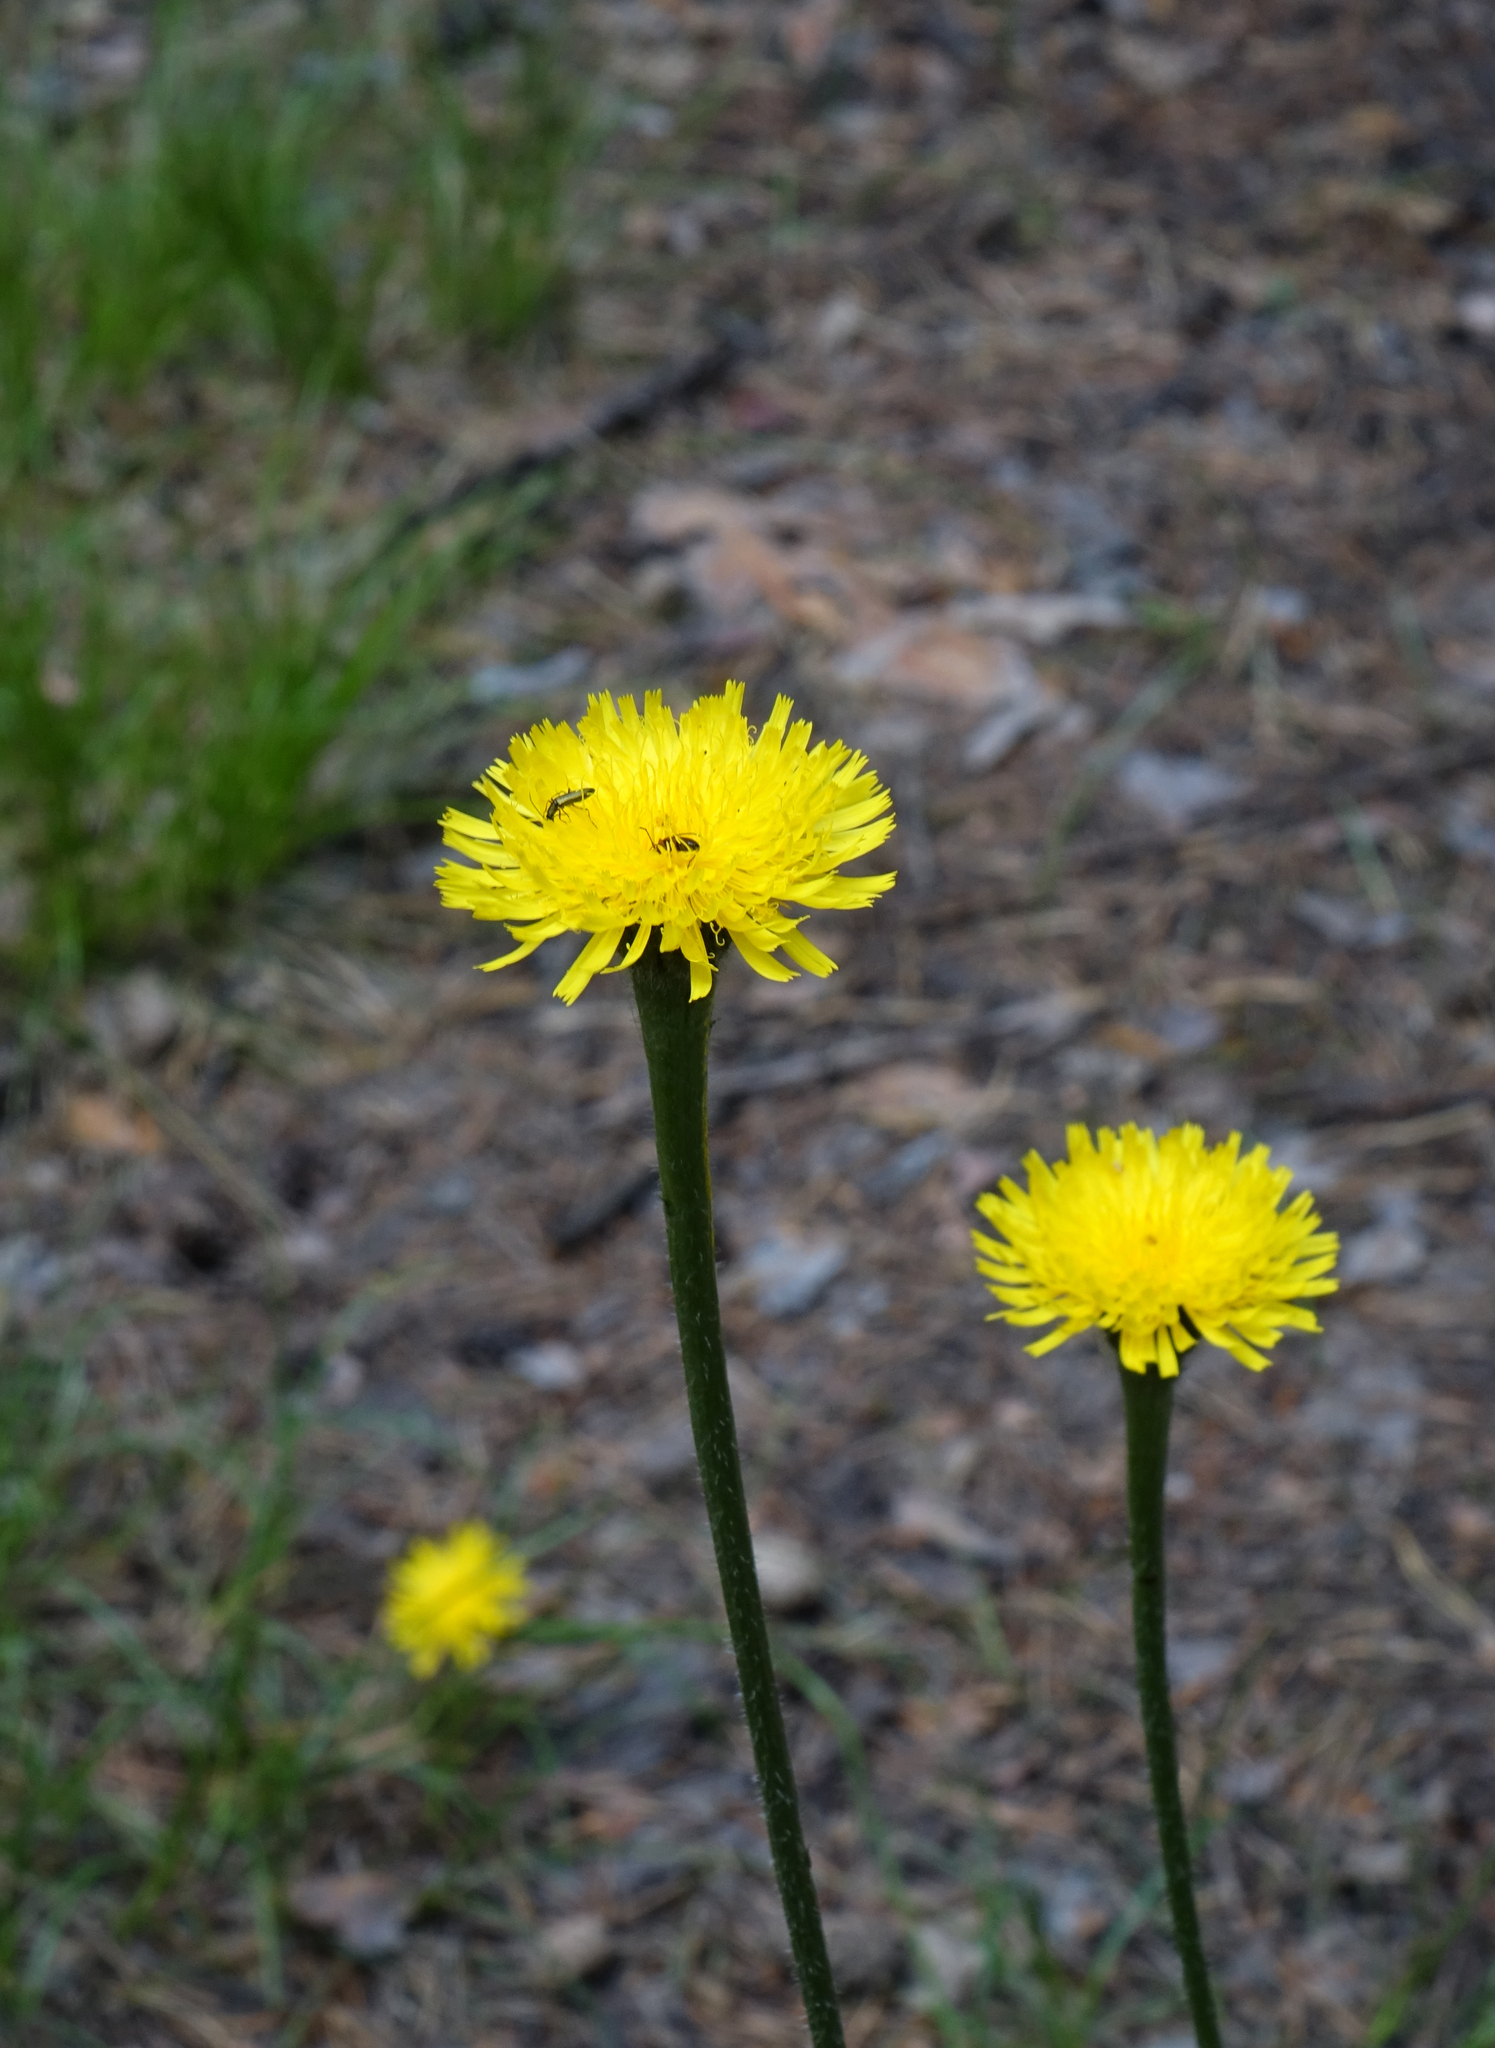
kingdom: Plantae
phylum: Tracheophyta
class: Magnoliopsida
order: Asterales
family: Asteraceae
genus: Trommsdorffia
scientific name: Trommsdorffia maculata
